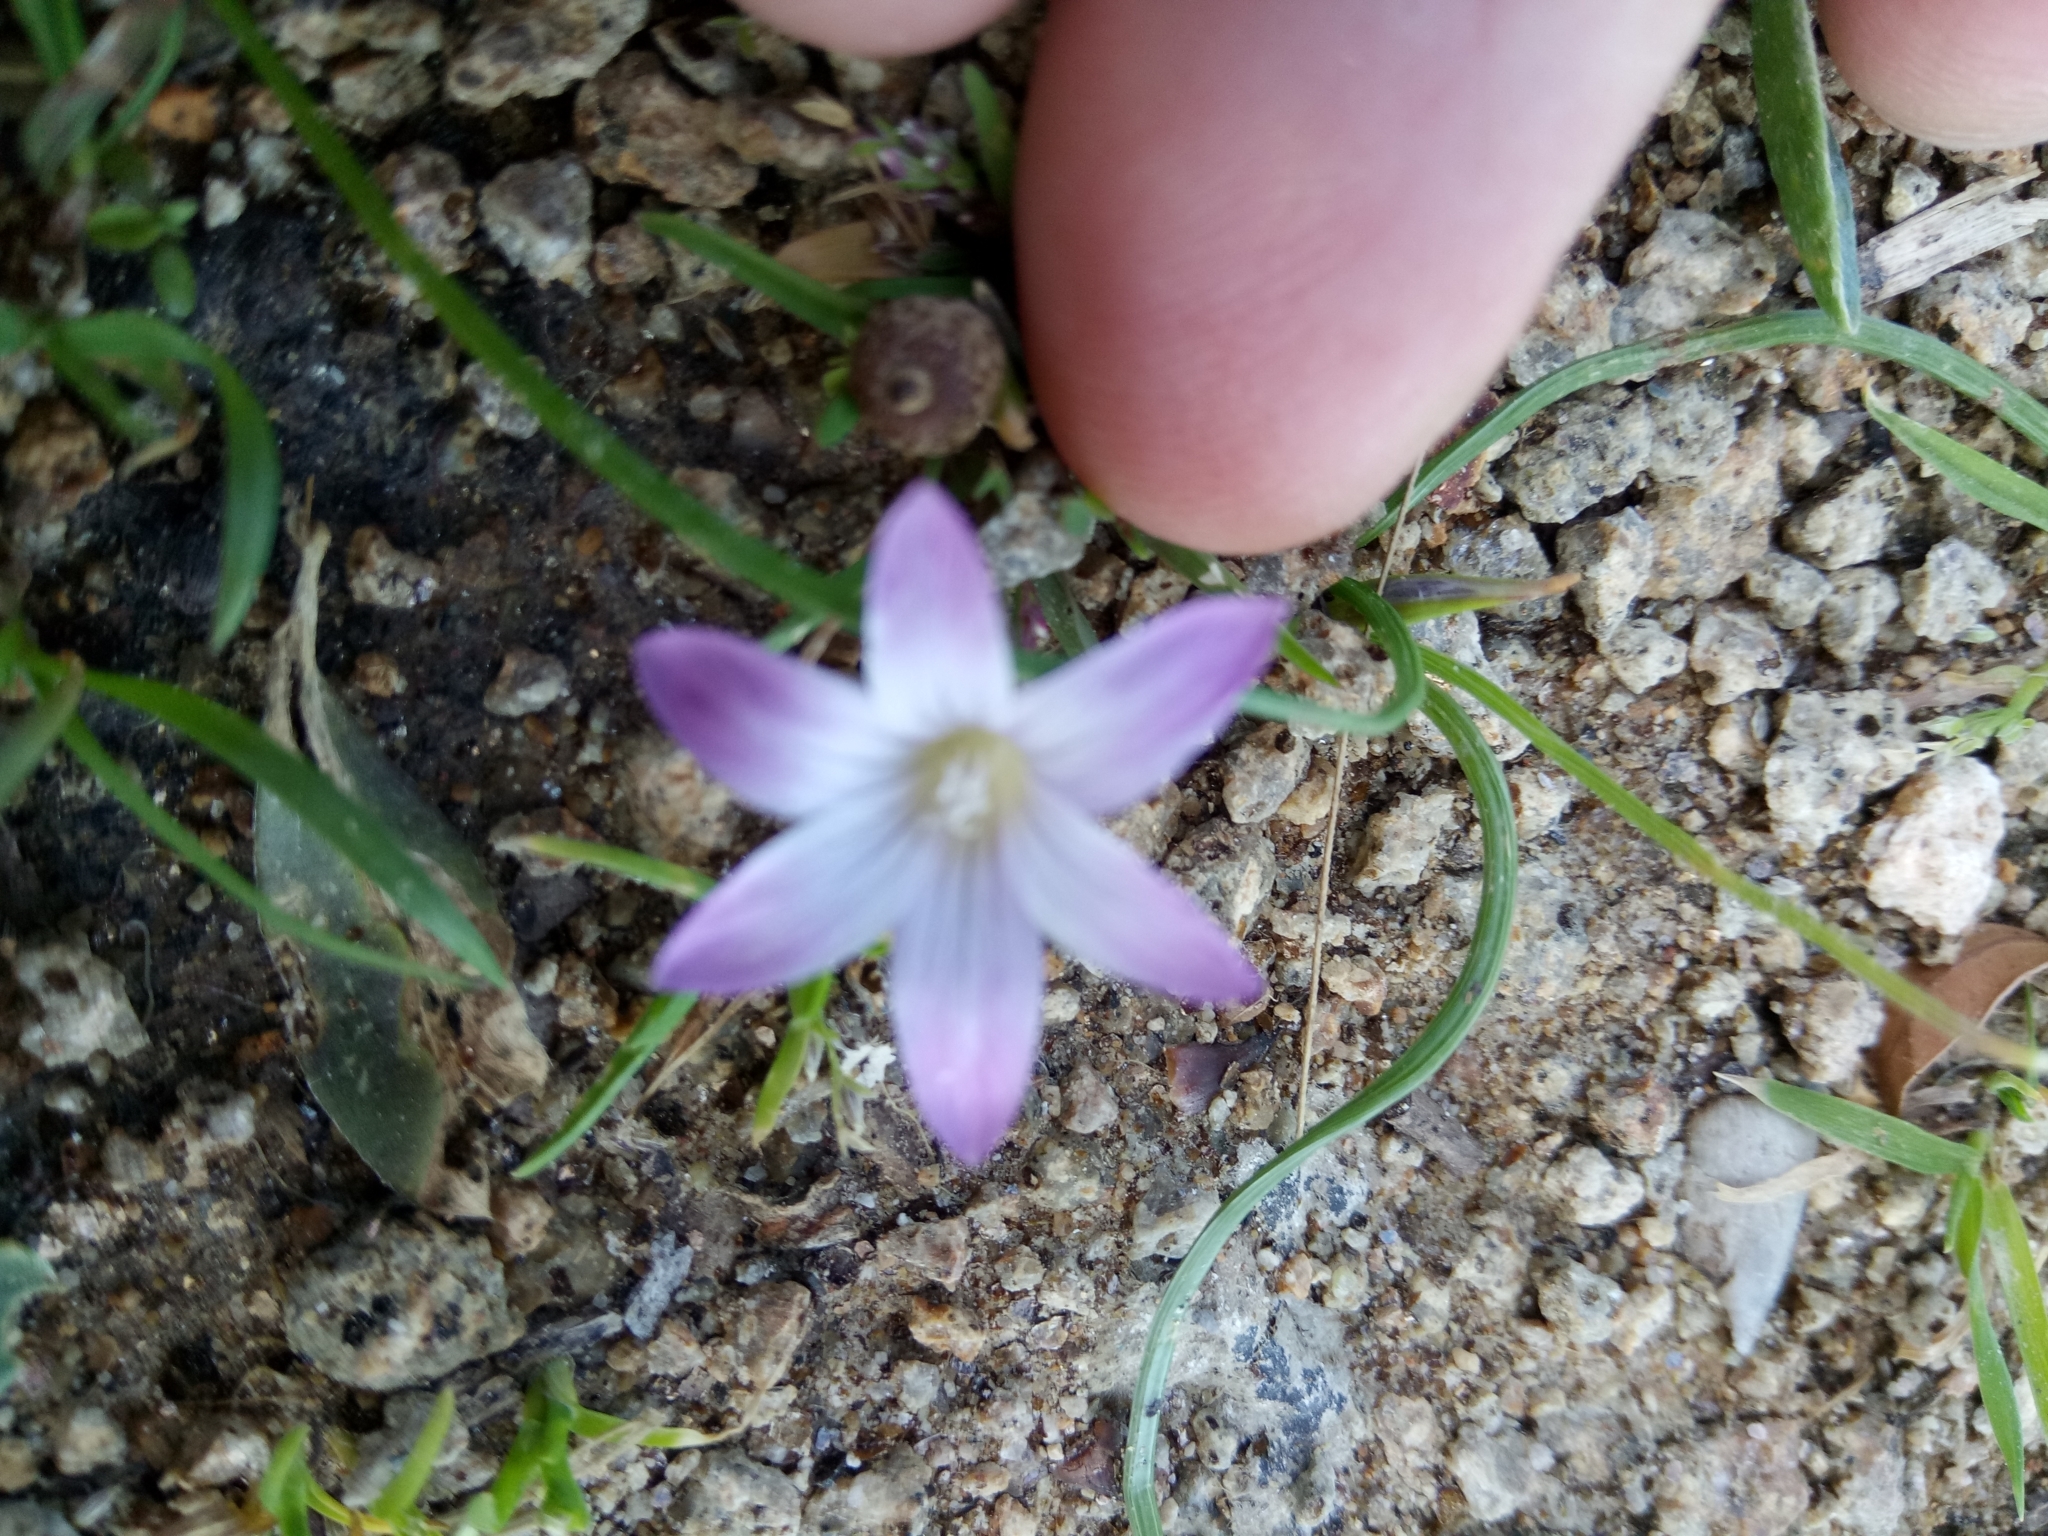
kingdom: Plantae
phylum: Tracheophyta
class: Liliopsida
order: Asparagales
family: Iridaceae
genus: Romulea
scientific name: Romulea ligustica
